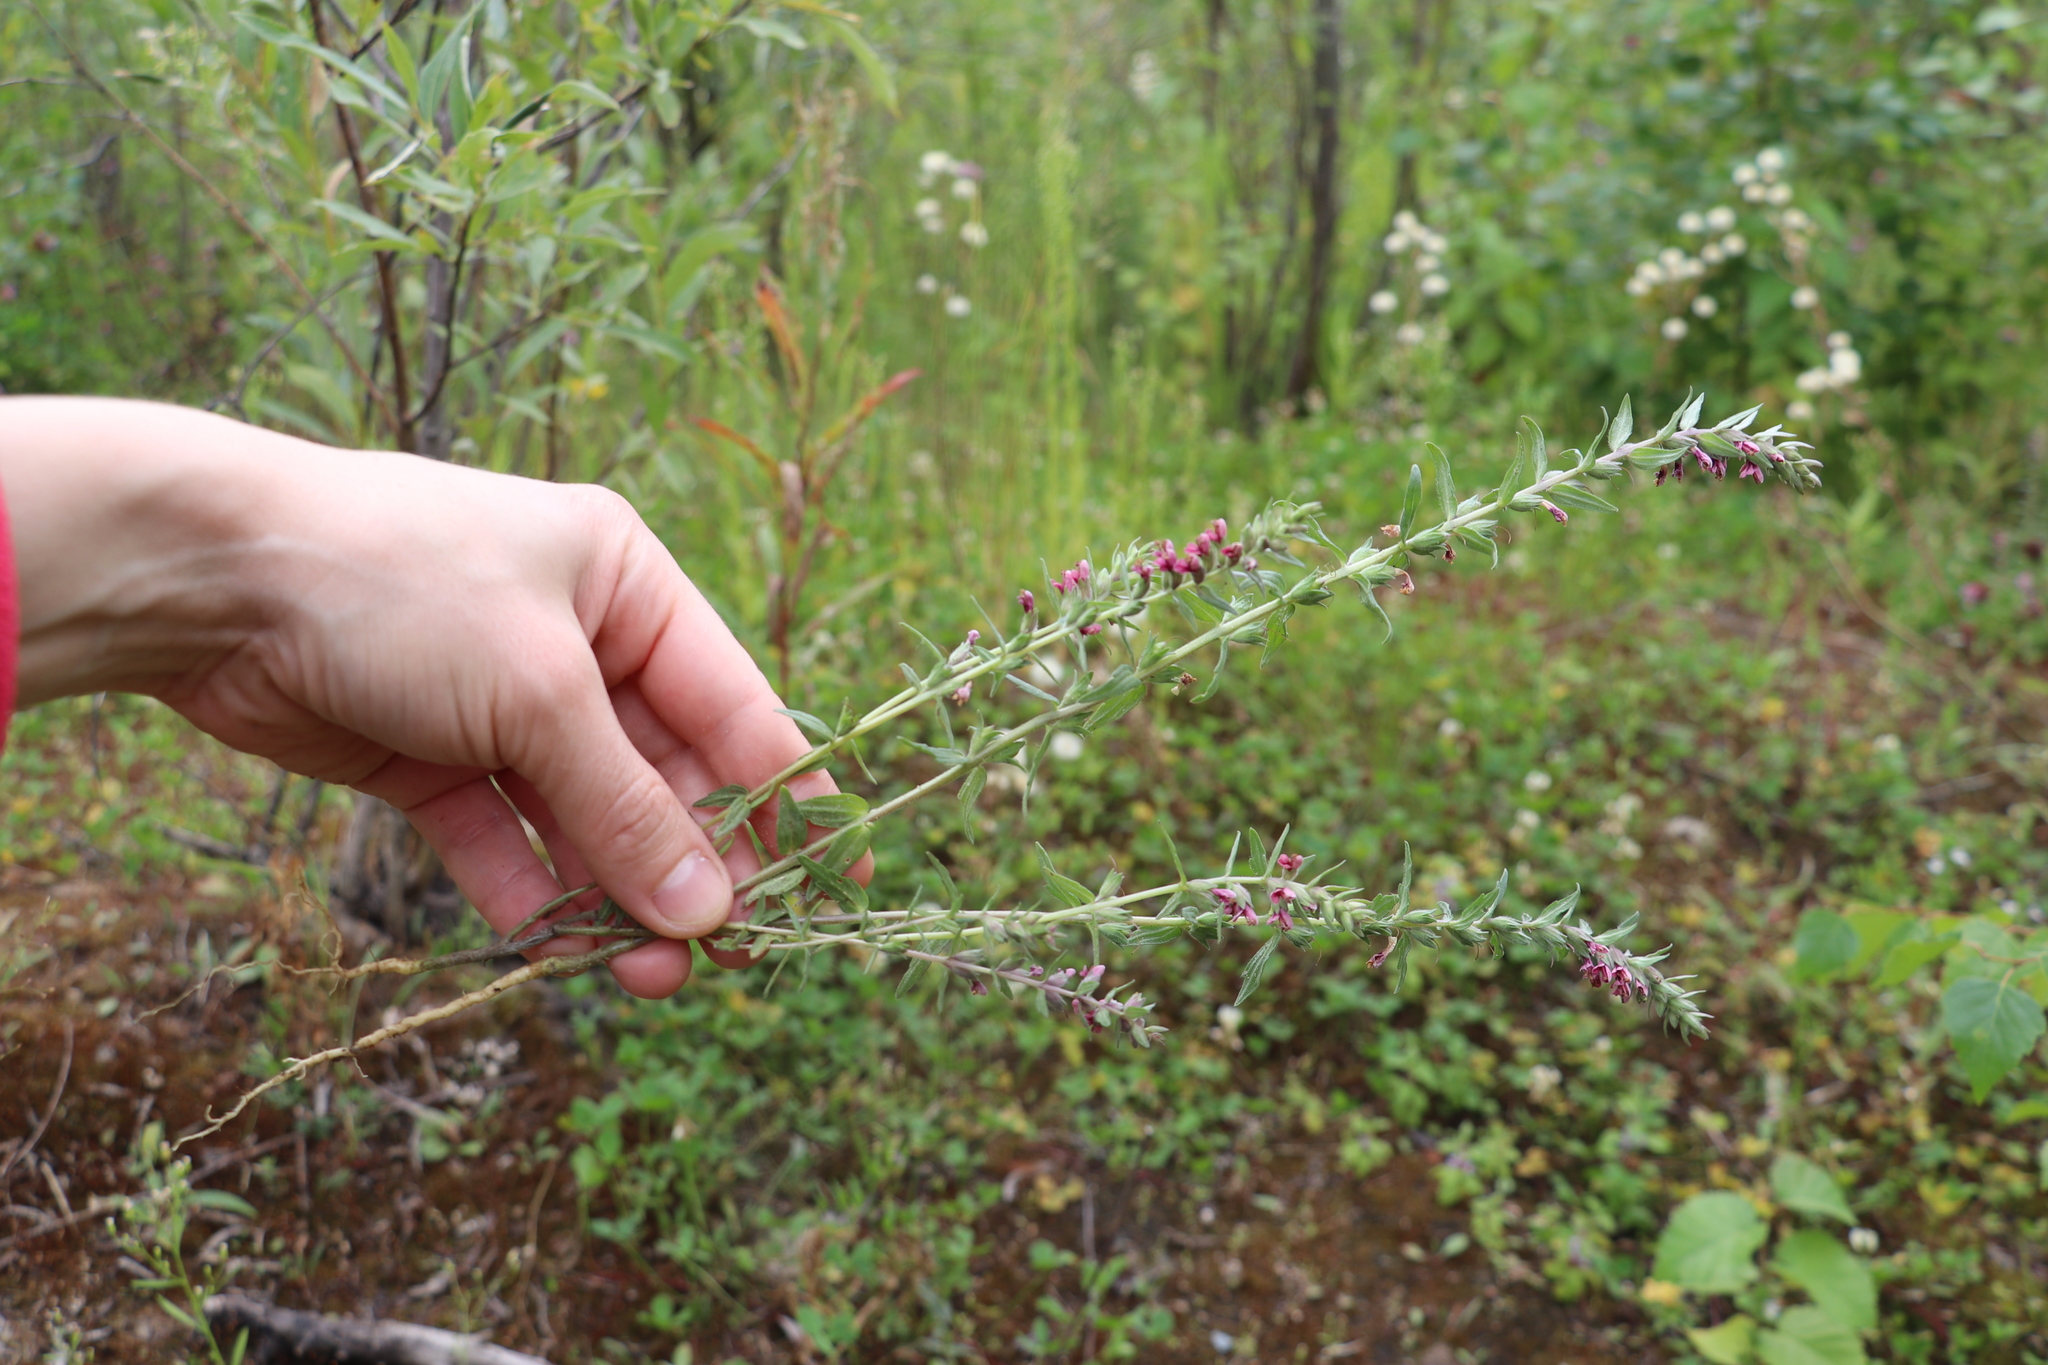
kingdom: Plantae
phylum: Tracheophyta
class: Magnoliopsida
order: Lamiales
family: Orobanchaceae
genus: Odontites
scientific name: Odontites vulgaris
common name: Broomrape
